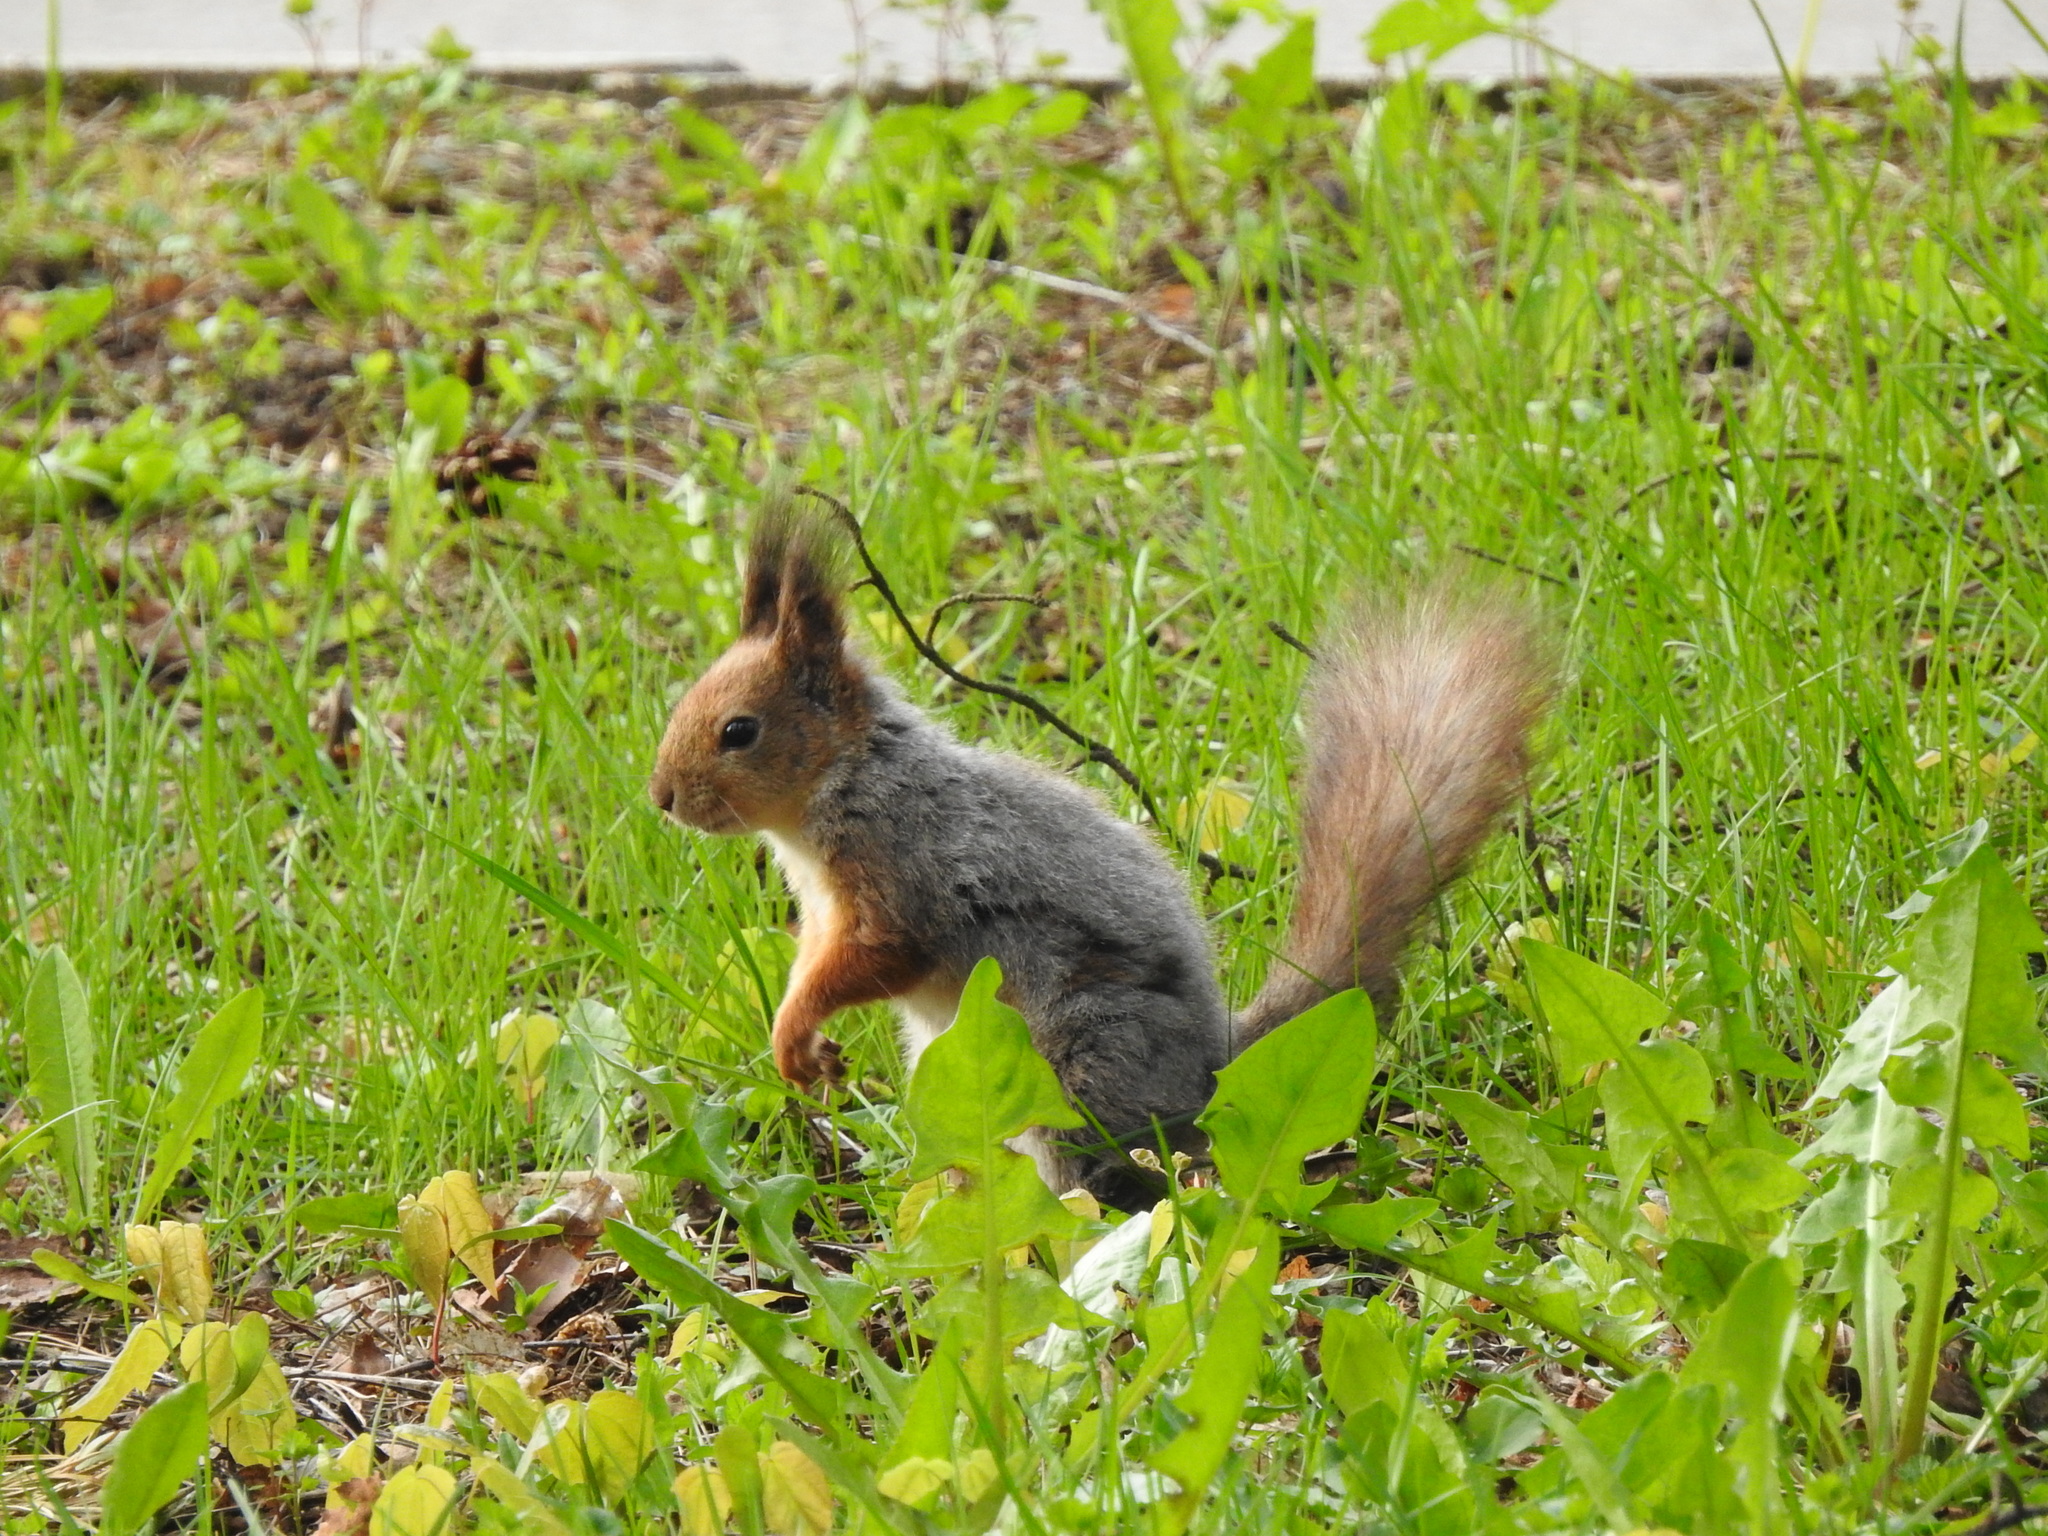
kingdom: Animalia
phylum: Chordata
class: Mammalia
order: Rodentia
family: Sciuridae
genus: Sciurus
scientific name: Sciurus vulgaris
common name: Eurasian red squirrel
